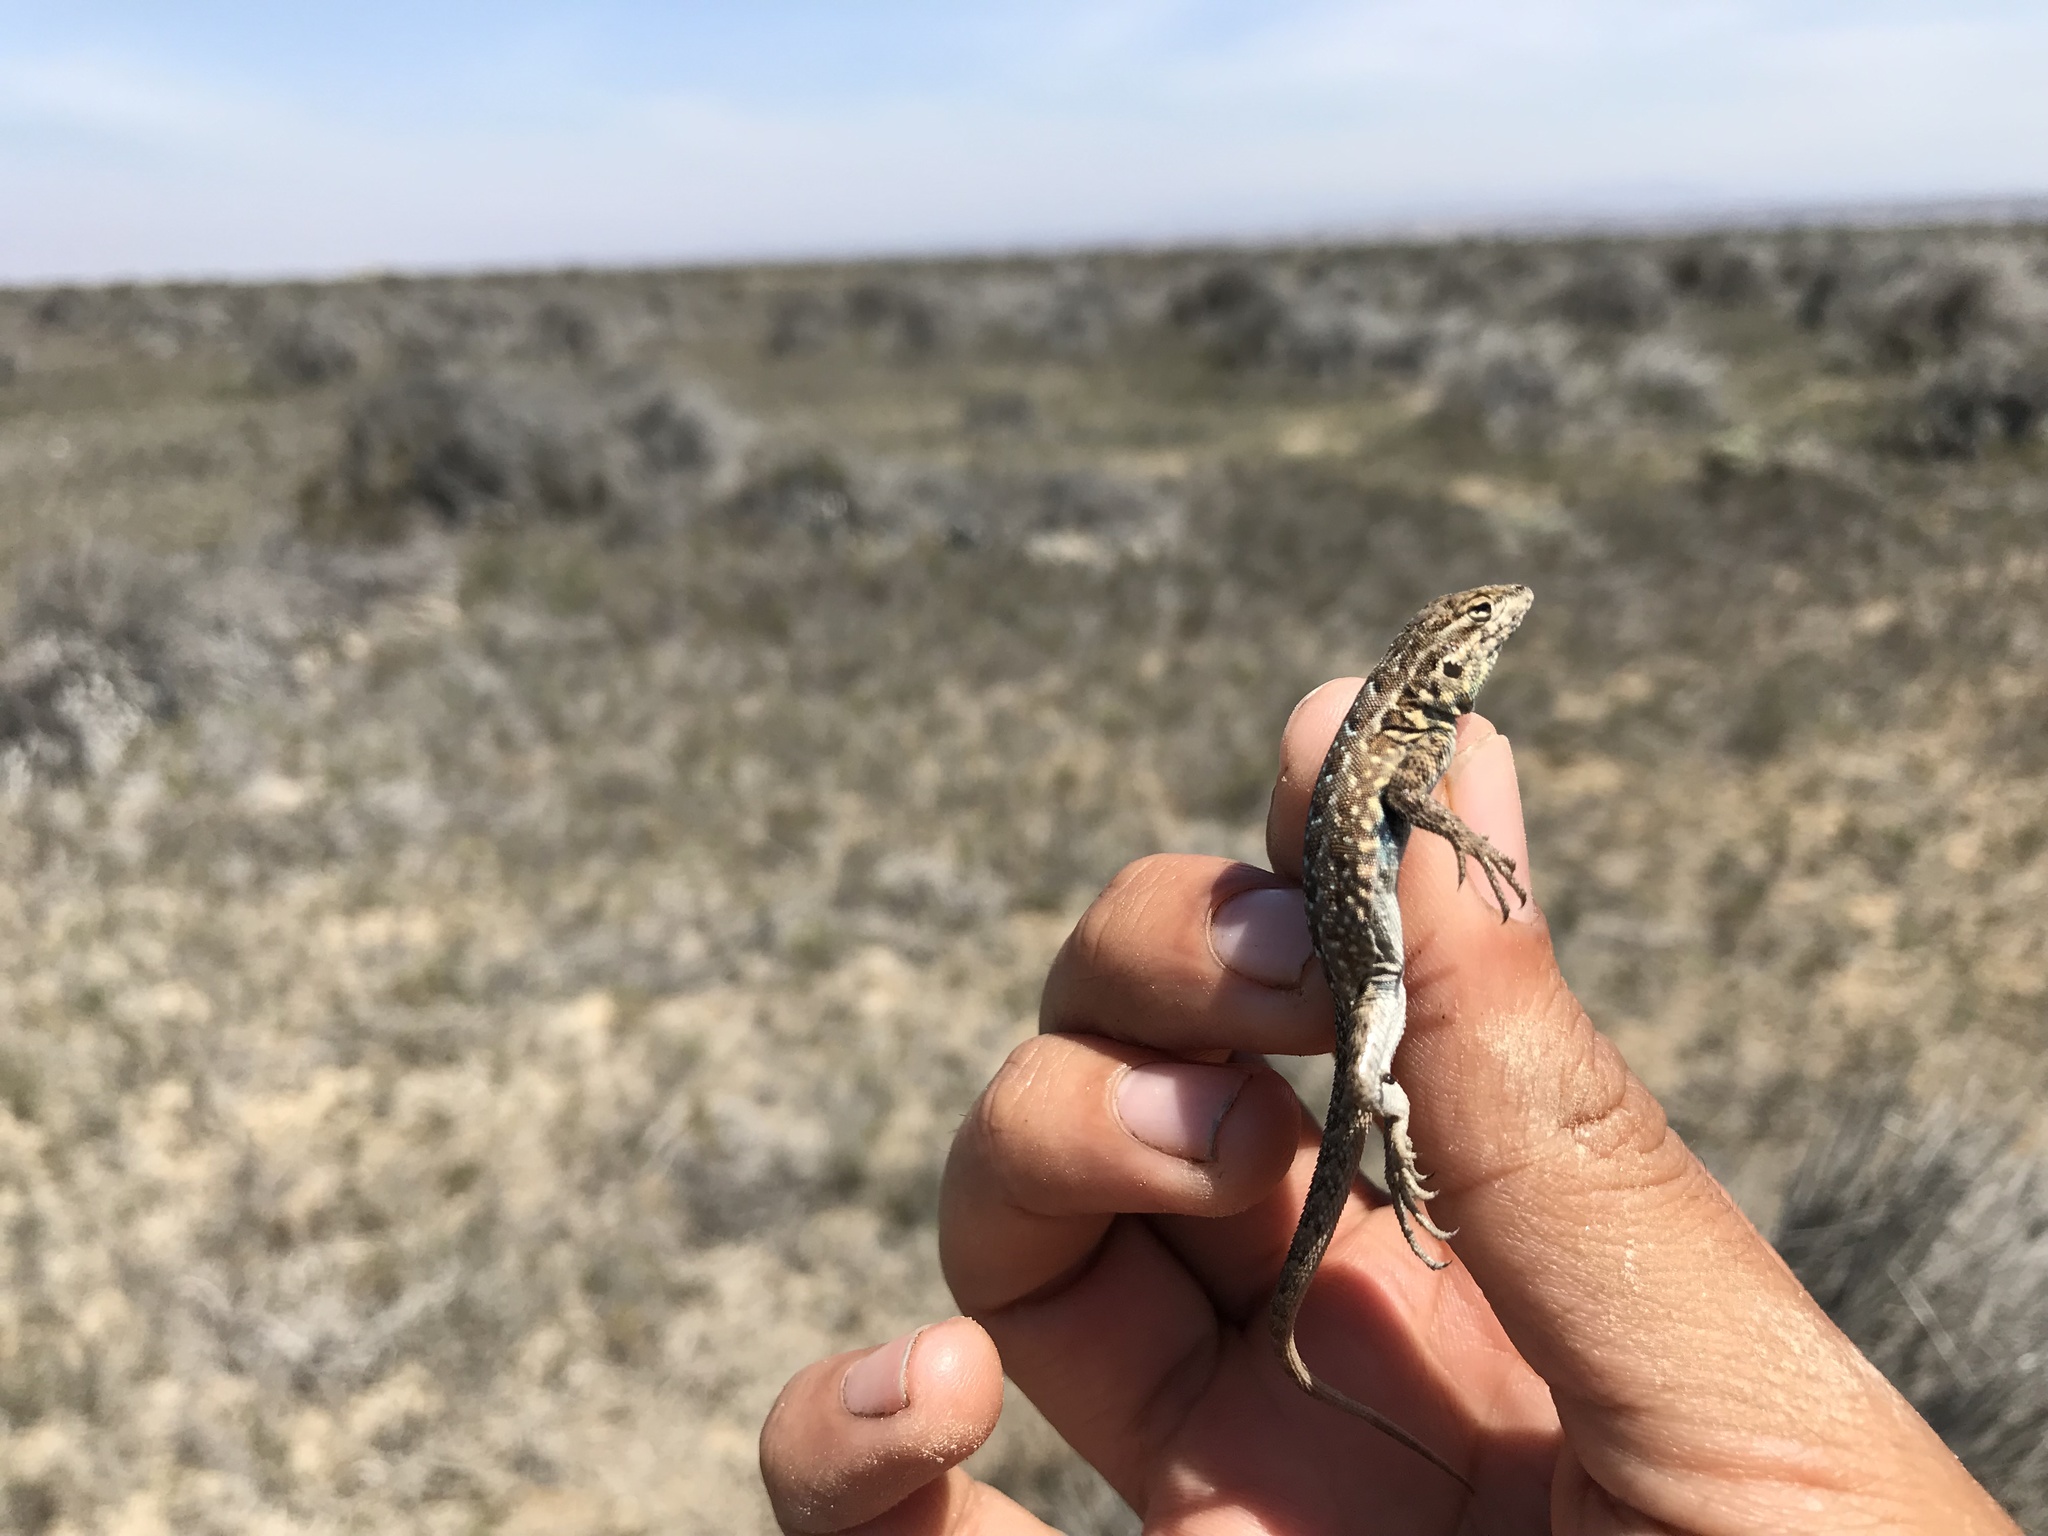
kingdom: Animalia
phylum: Chordata
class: Squamata
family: Phrynosomatidae
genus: Uta
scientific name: Uta stansburiana
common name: Side-blotched lizard
